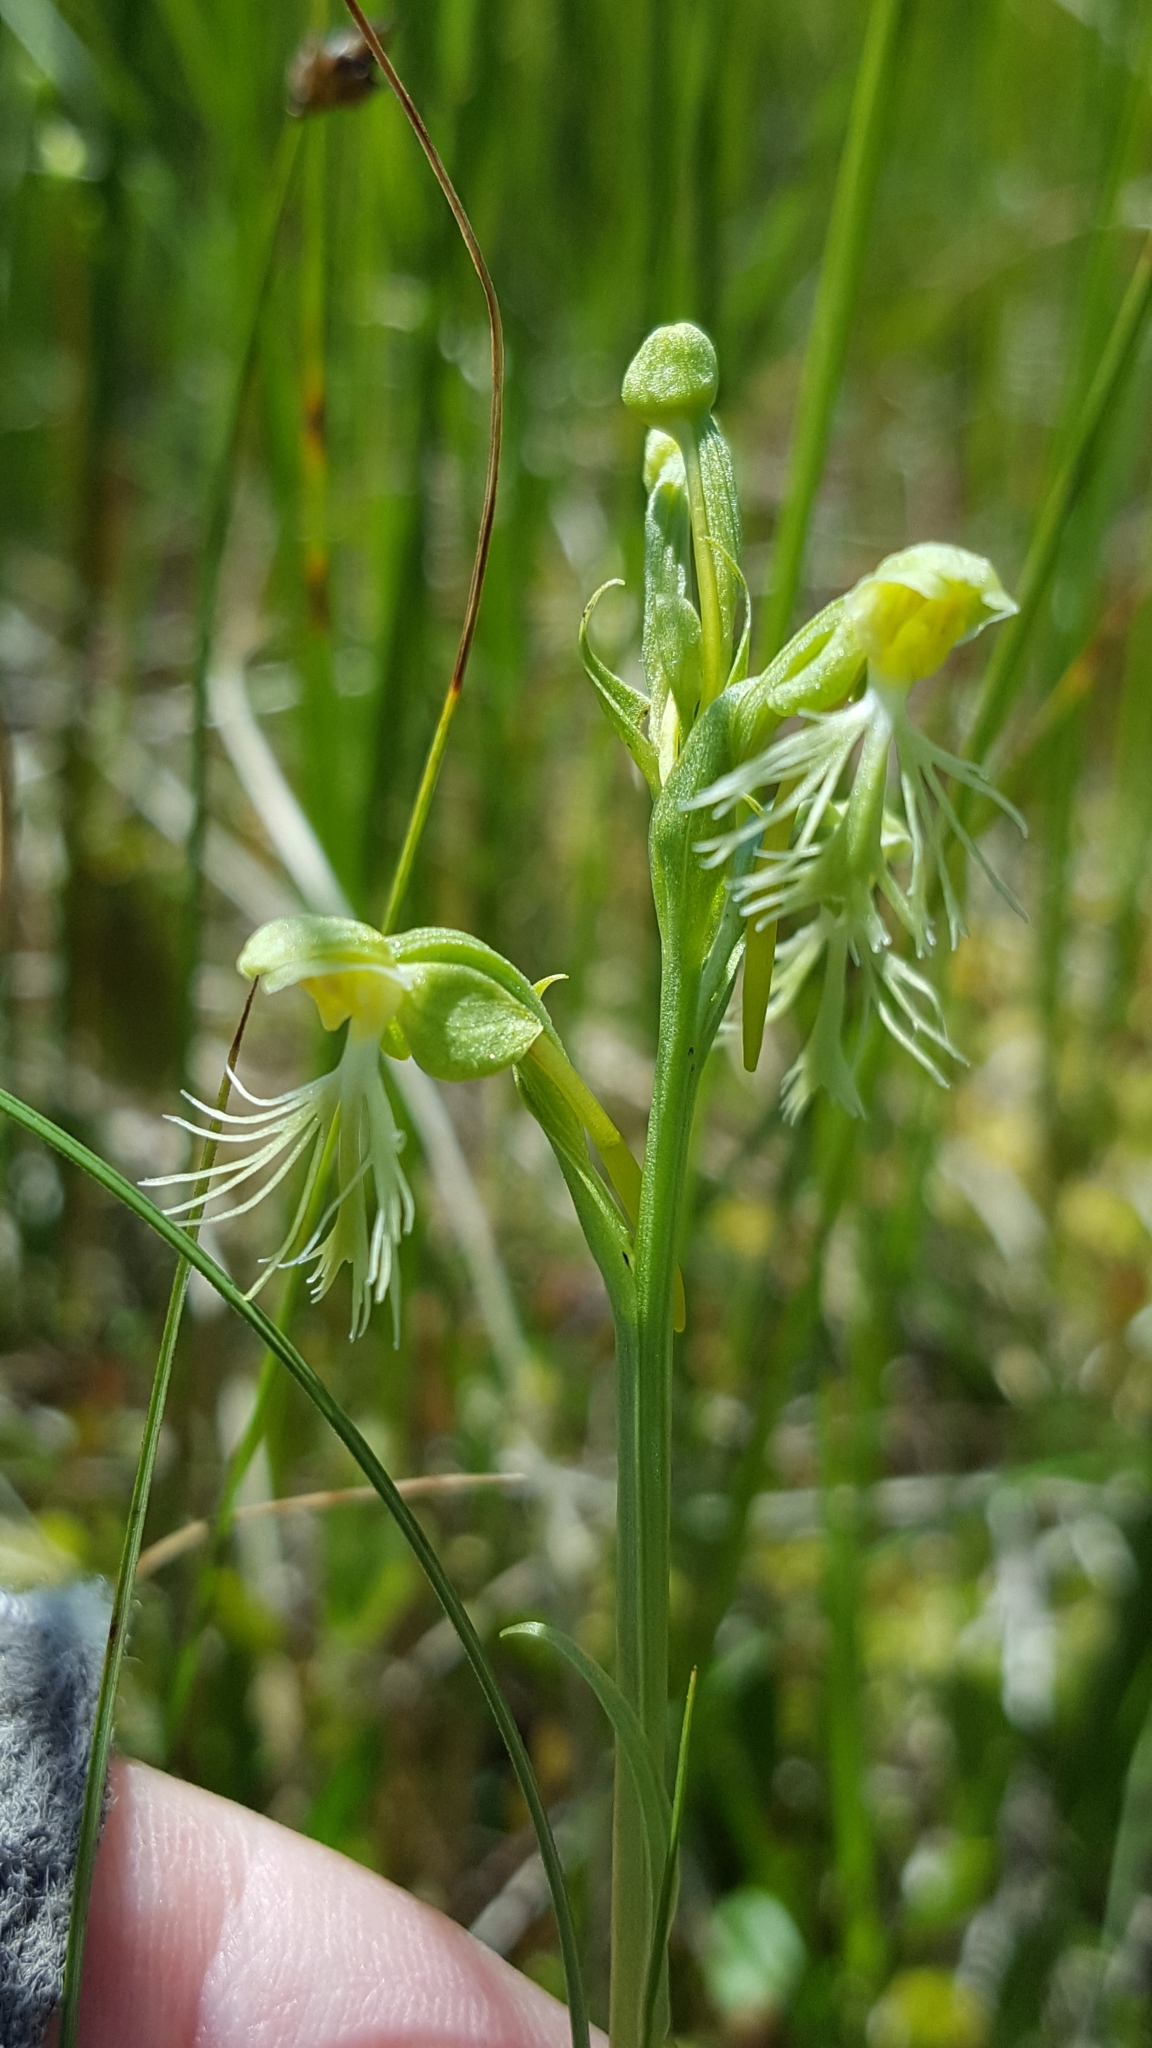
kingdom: Plantae
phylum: Tracheophyta
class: Liliopsida
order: Asparagales
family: Orchidaceae
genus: Platanthera
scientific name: Platanthera lacera
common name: Green fringed orchid
